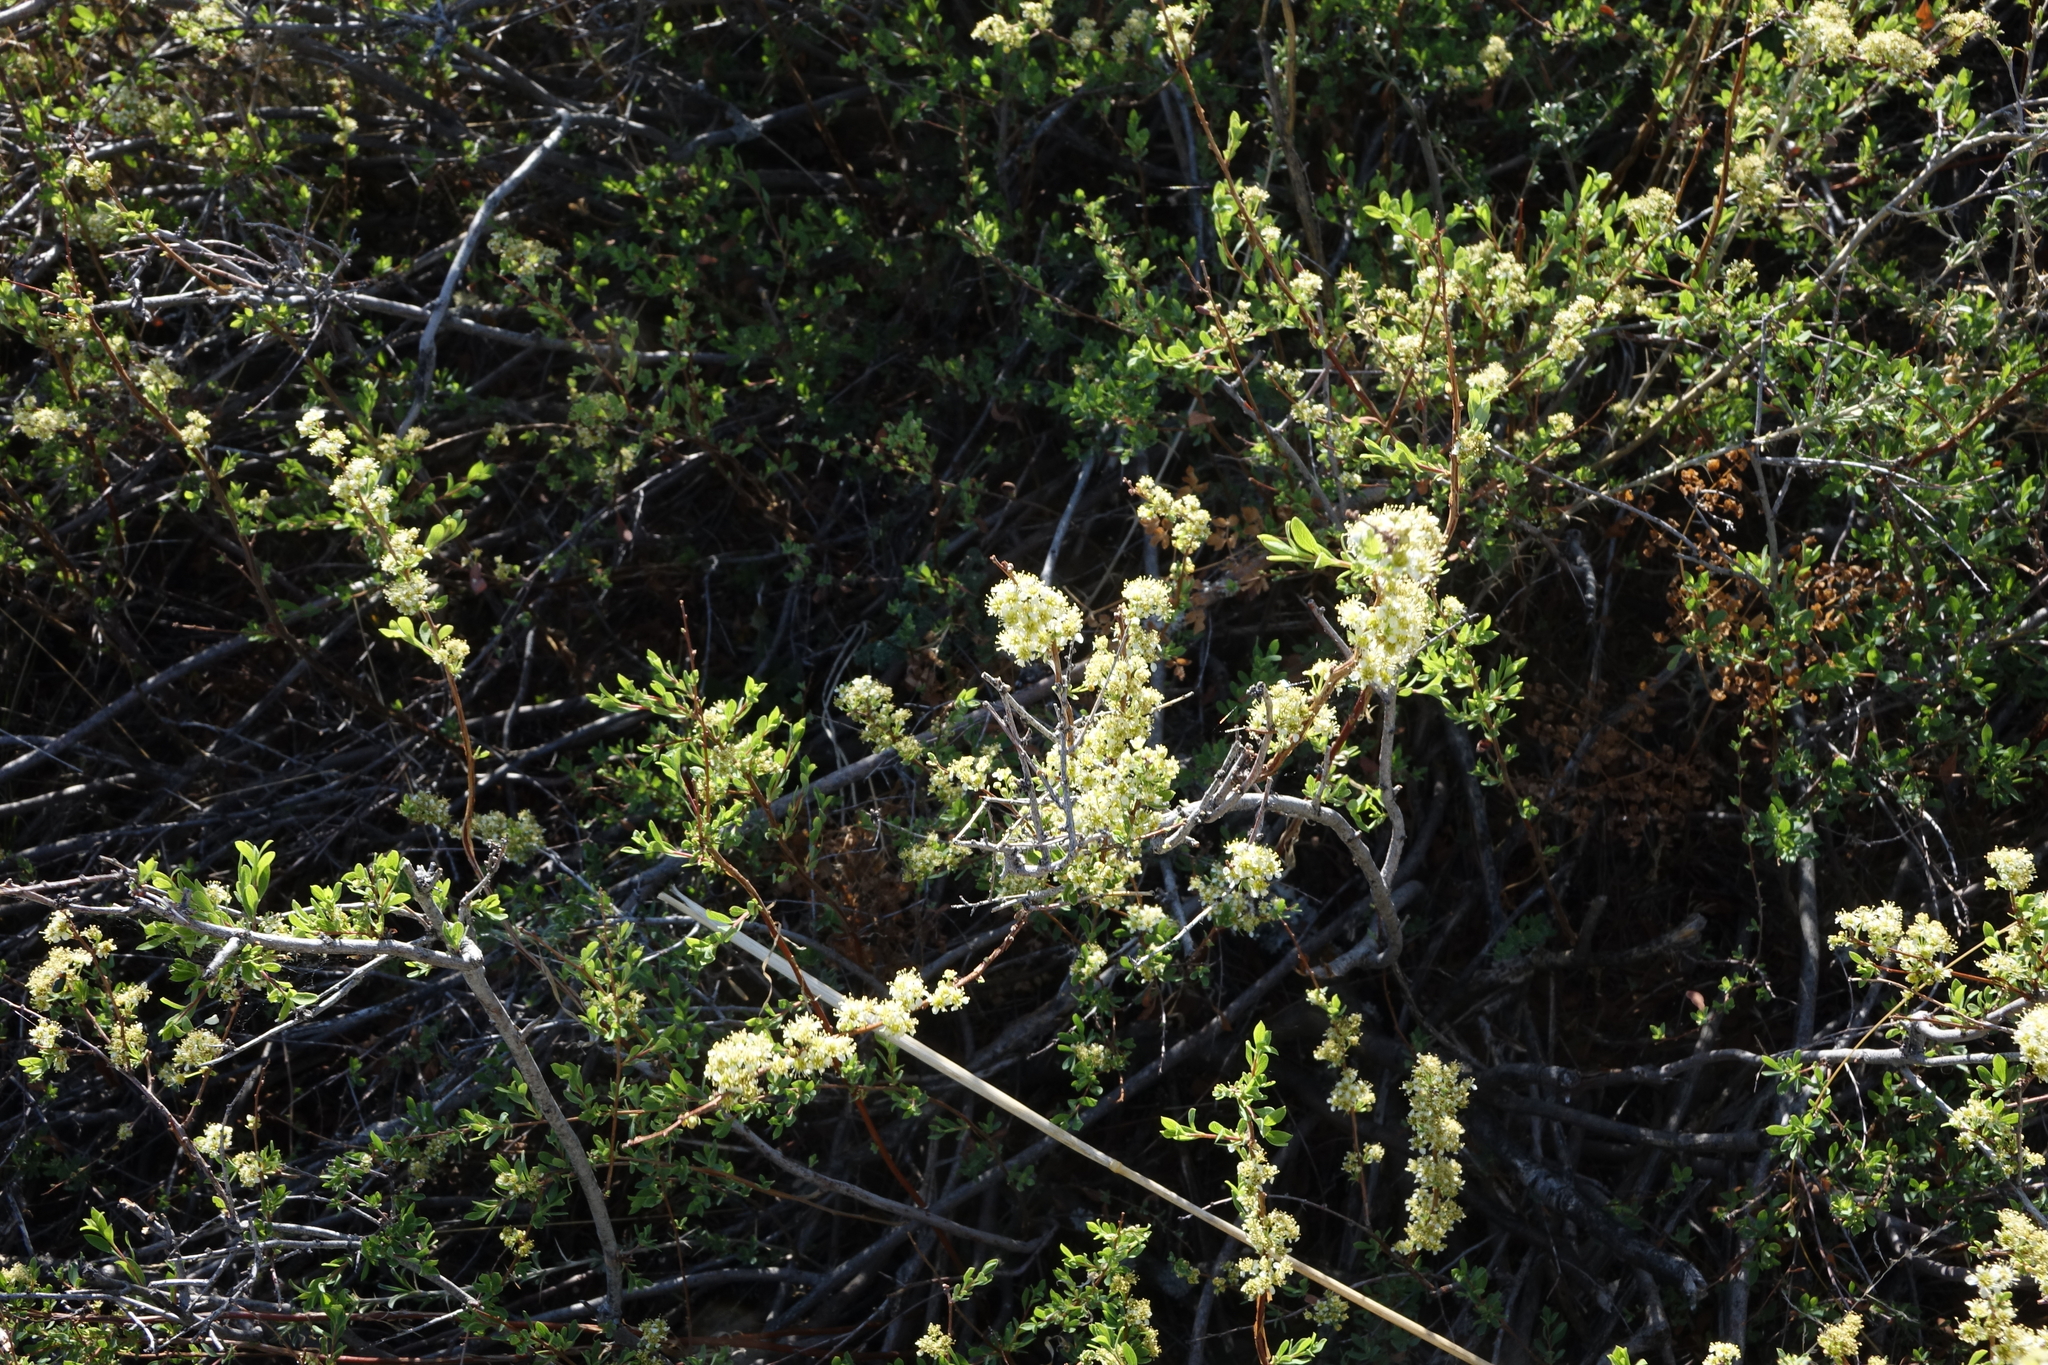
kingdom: Plantae
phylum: Tracheophyta
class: Magnoliopsida
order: Rosales
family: Rosaceae
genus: Spiraea
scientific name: Spiraea hypericifolia
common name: Iberian spirea
